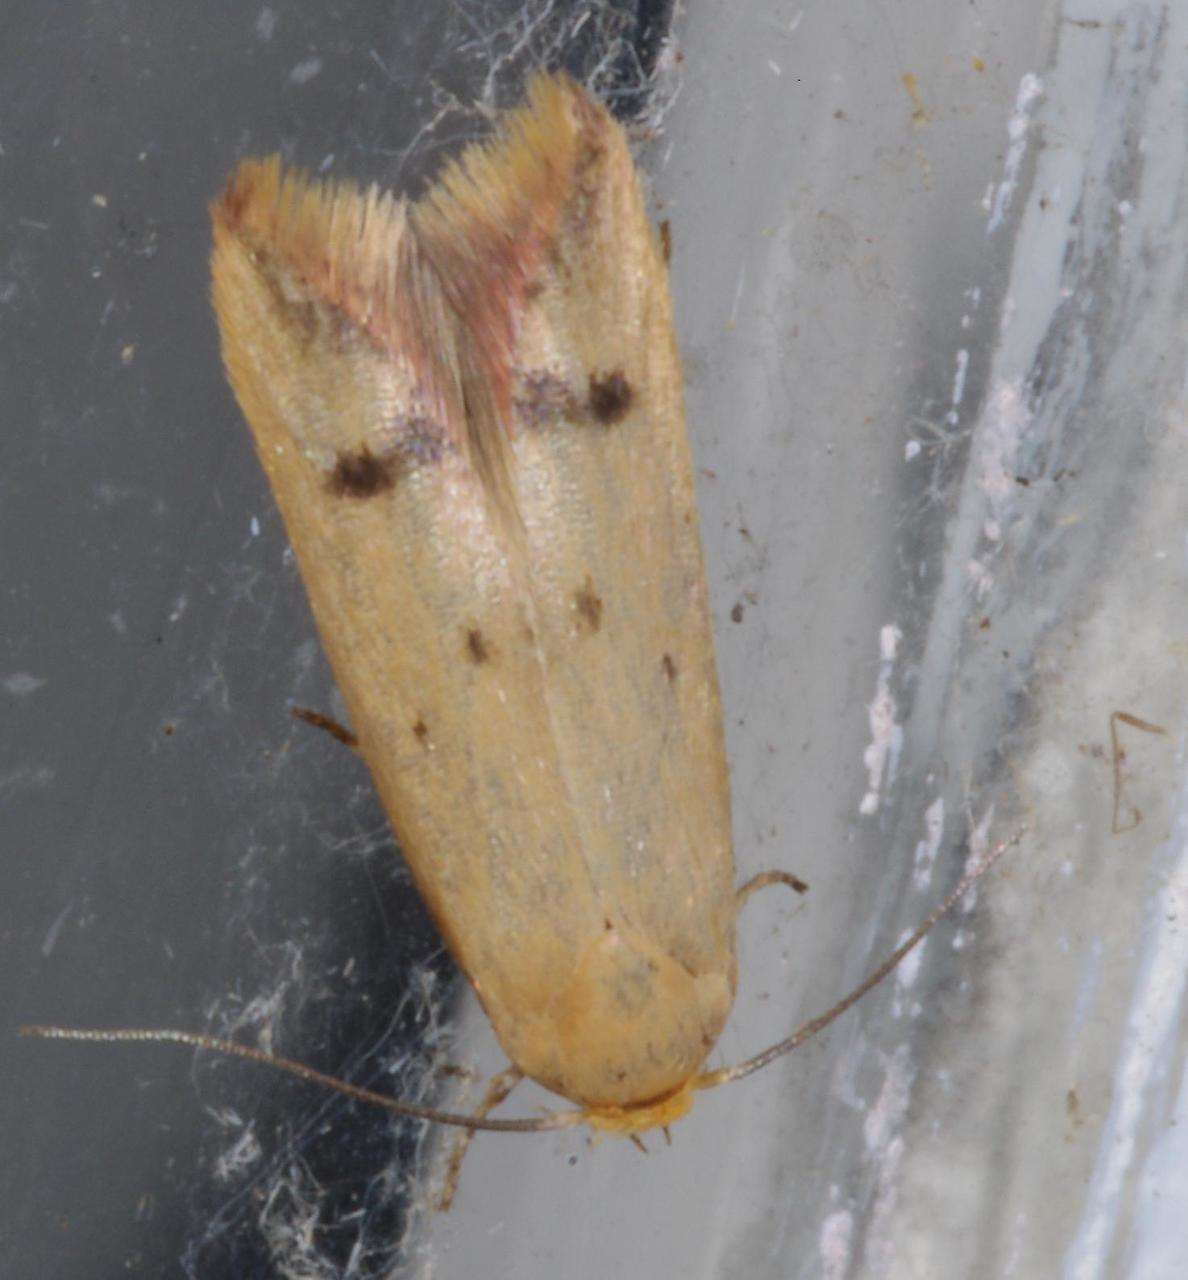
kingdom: Animalia
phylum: Arthropoda
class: Insecta
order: Lepidoptera
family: Oecophoridae
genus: Tachystola
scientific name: Tachystola hemisema
